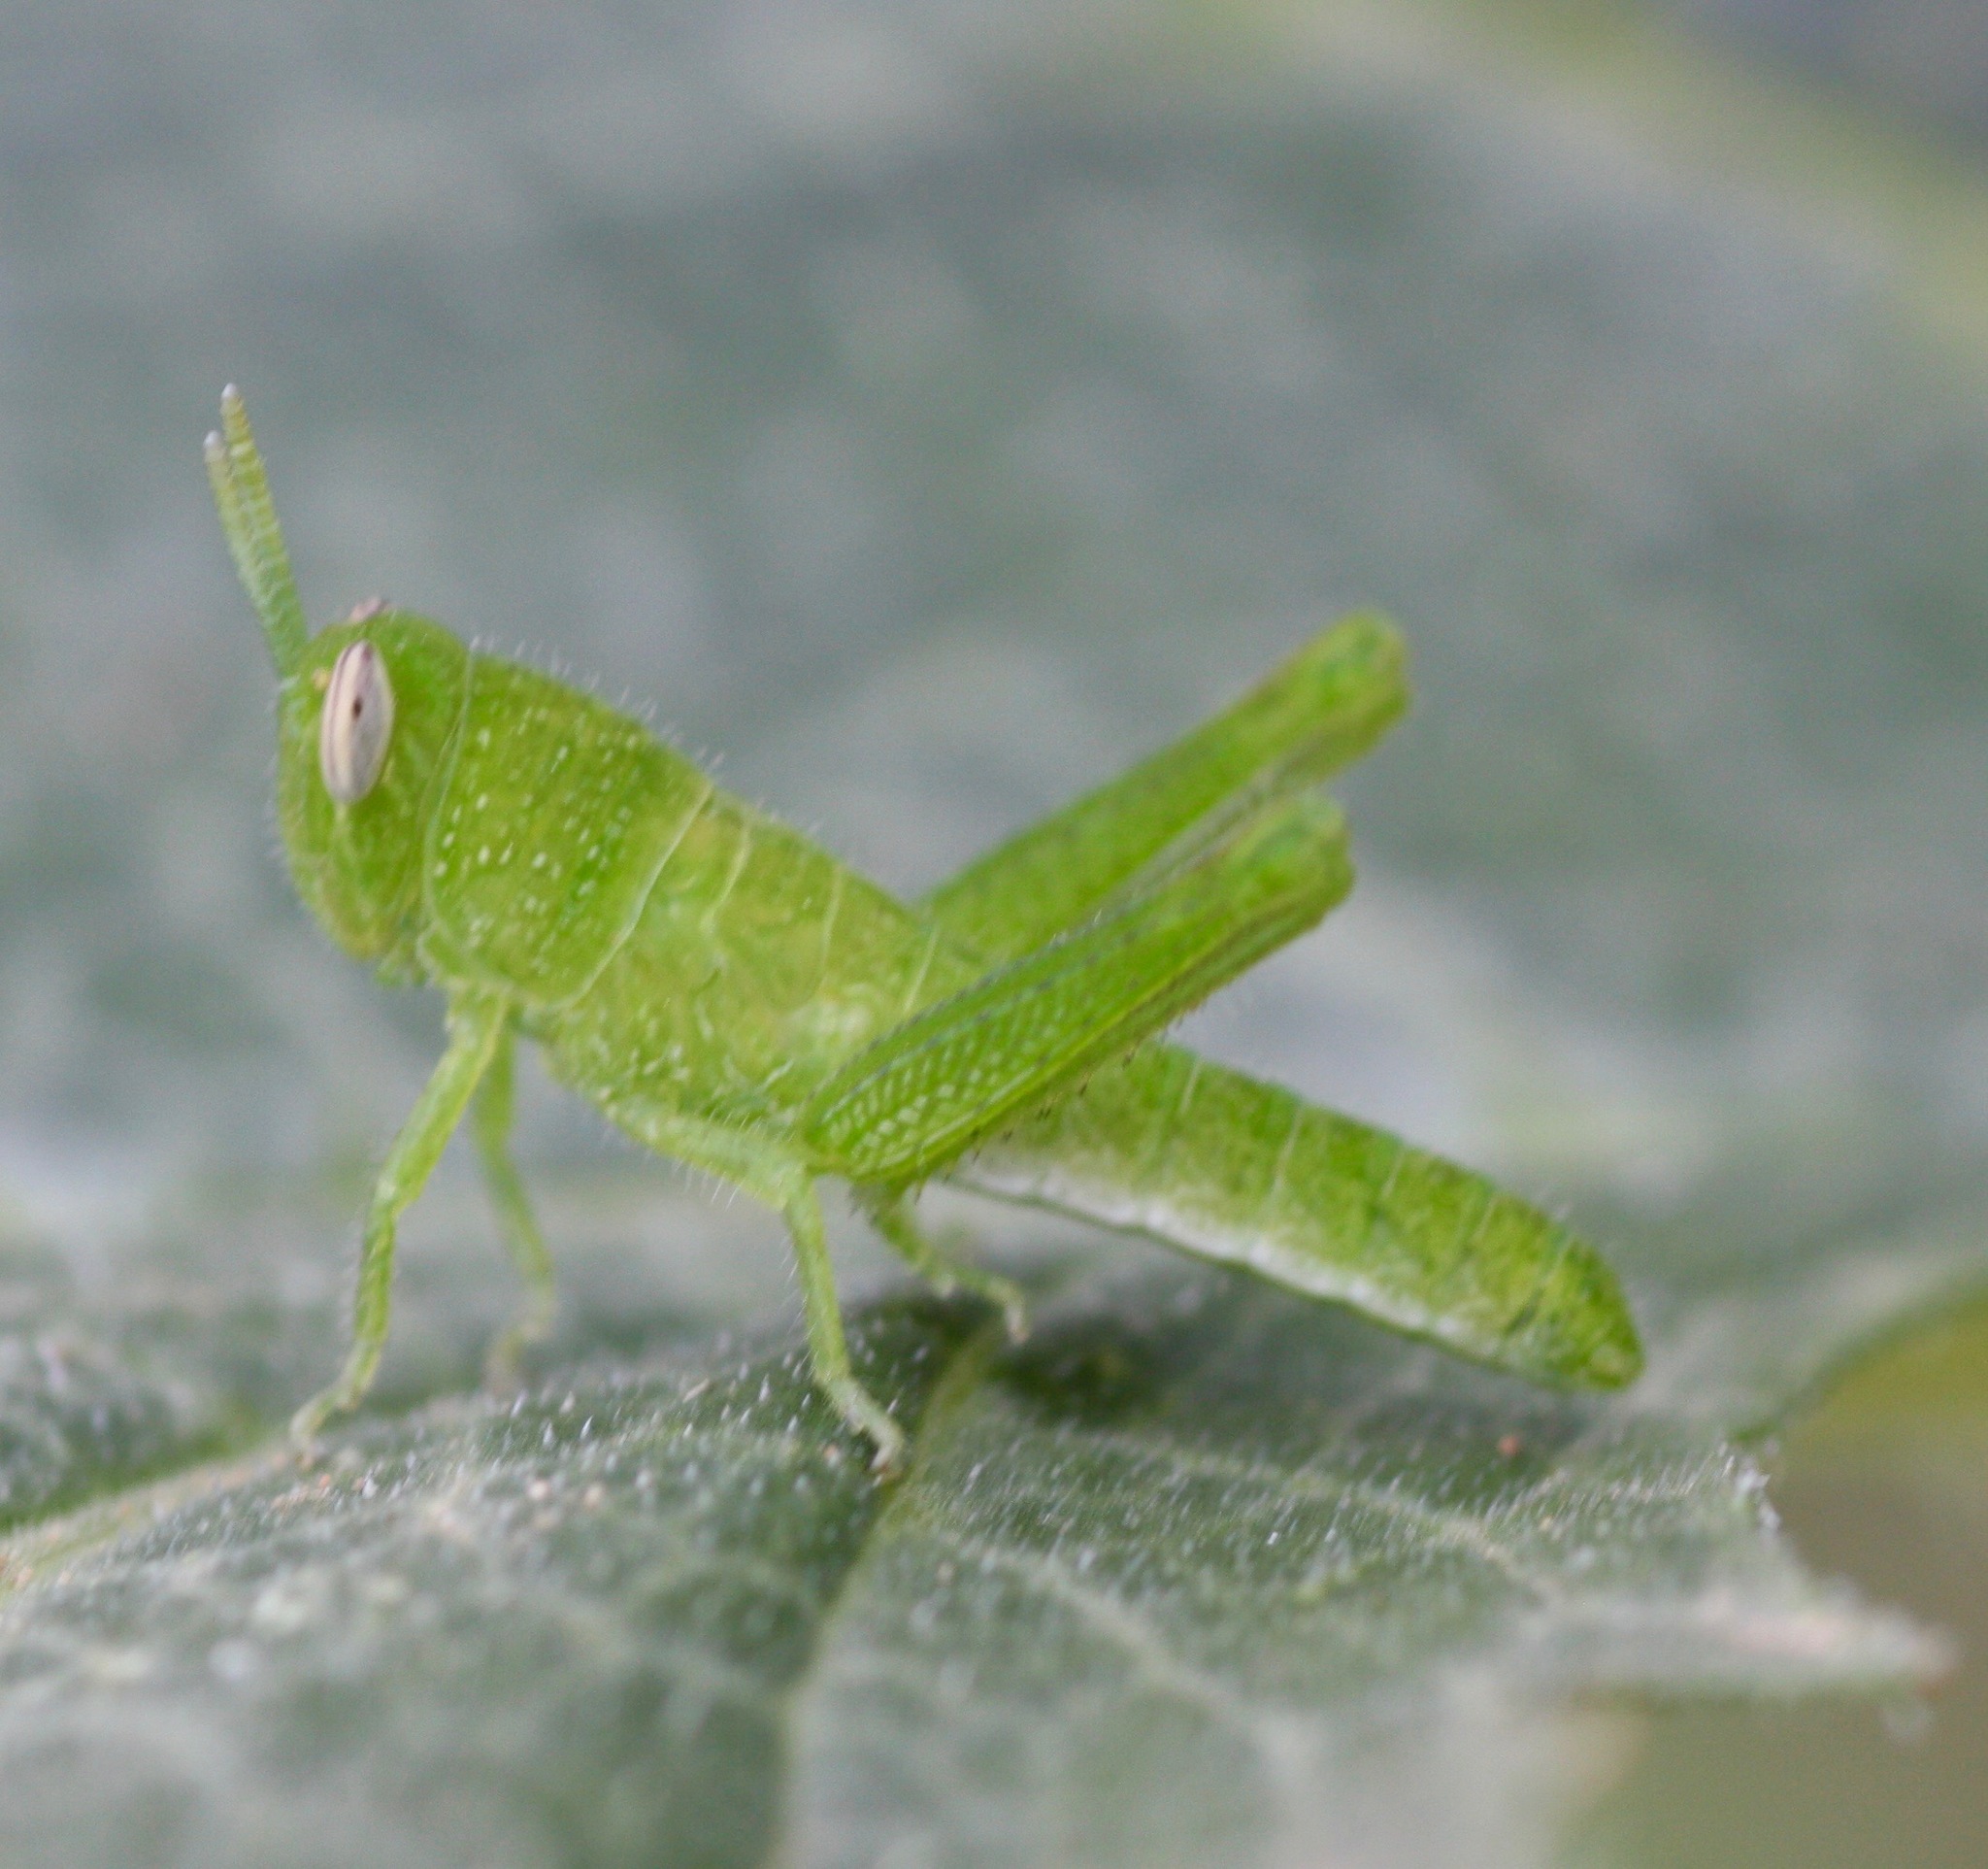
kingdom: Animalia
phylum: Arthropoda
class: Insecta
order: Orthoptera
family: Acrididae
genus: Schistocerca
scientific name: Schistocerca nitens
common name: Vagrant grasshopper
